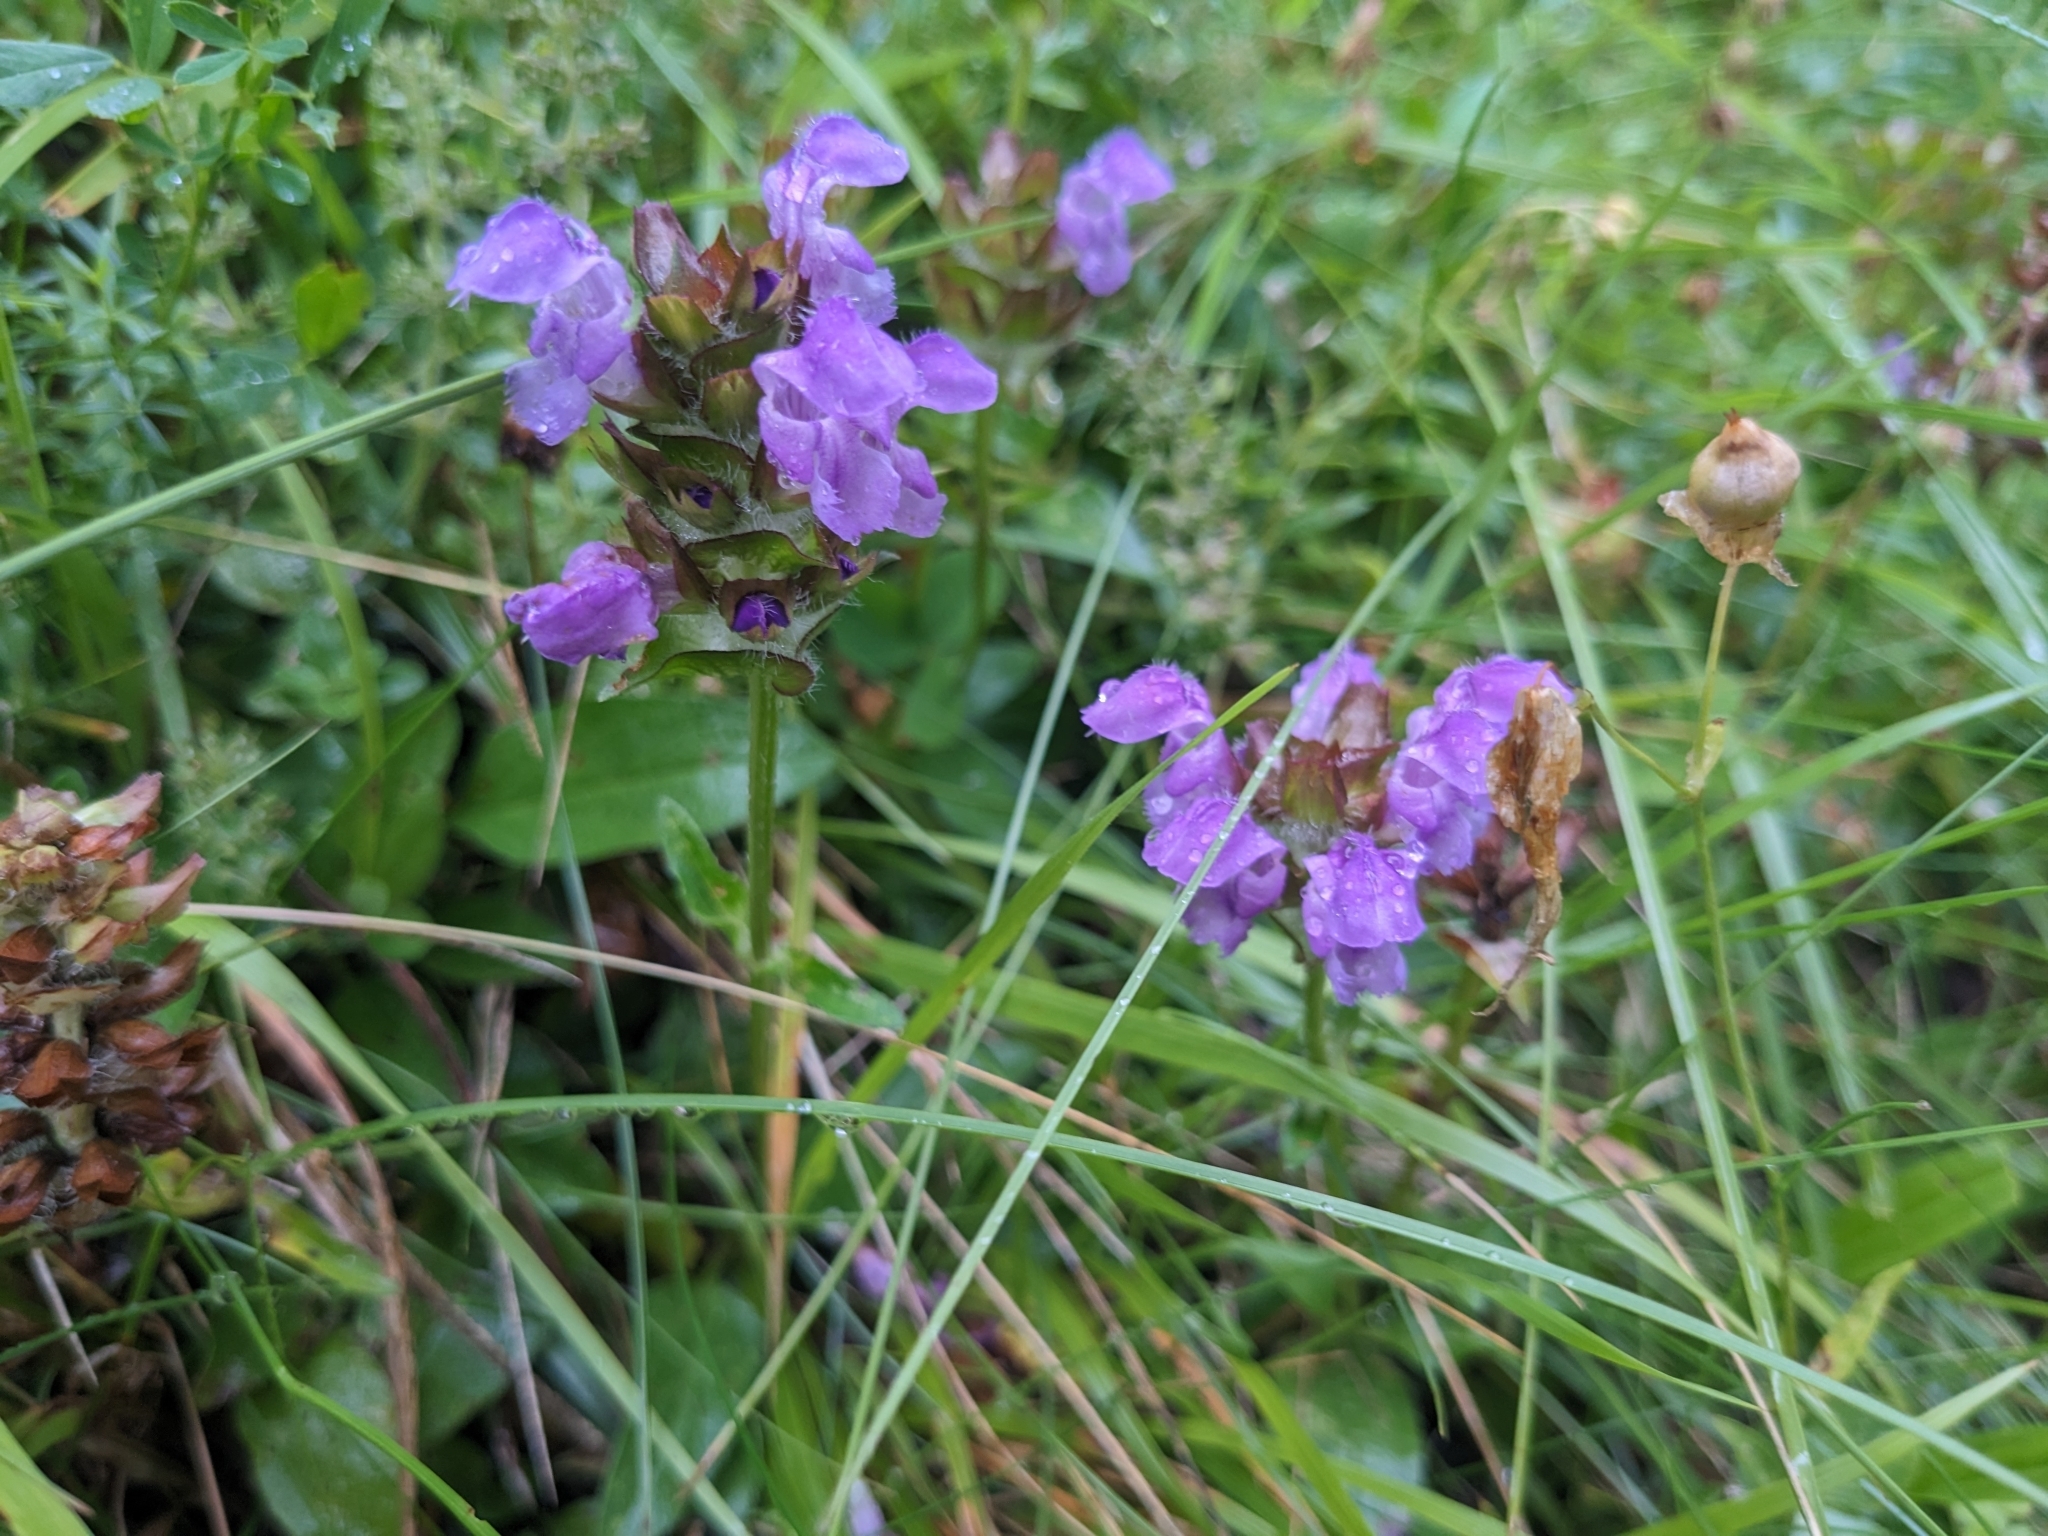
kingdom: Plantae
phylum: Tracheophyta
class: Magnoliopsida
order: Lamiales
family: Lamiaceae
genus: Prunella
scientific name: Prunella grandiflora
